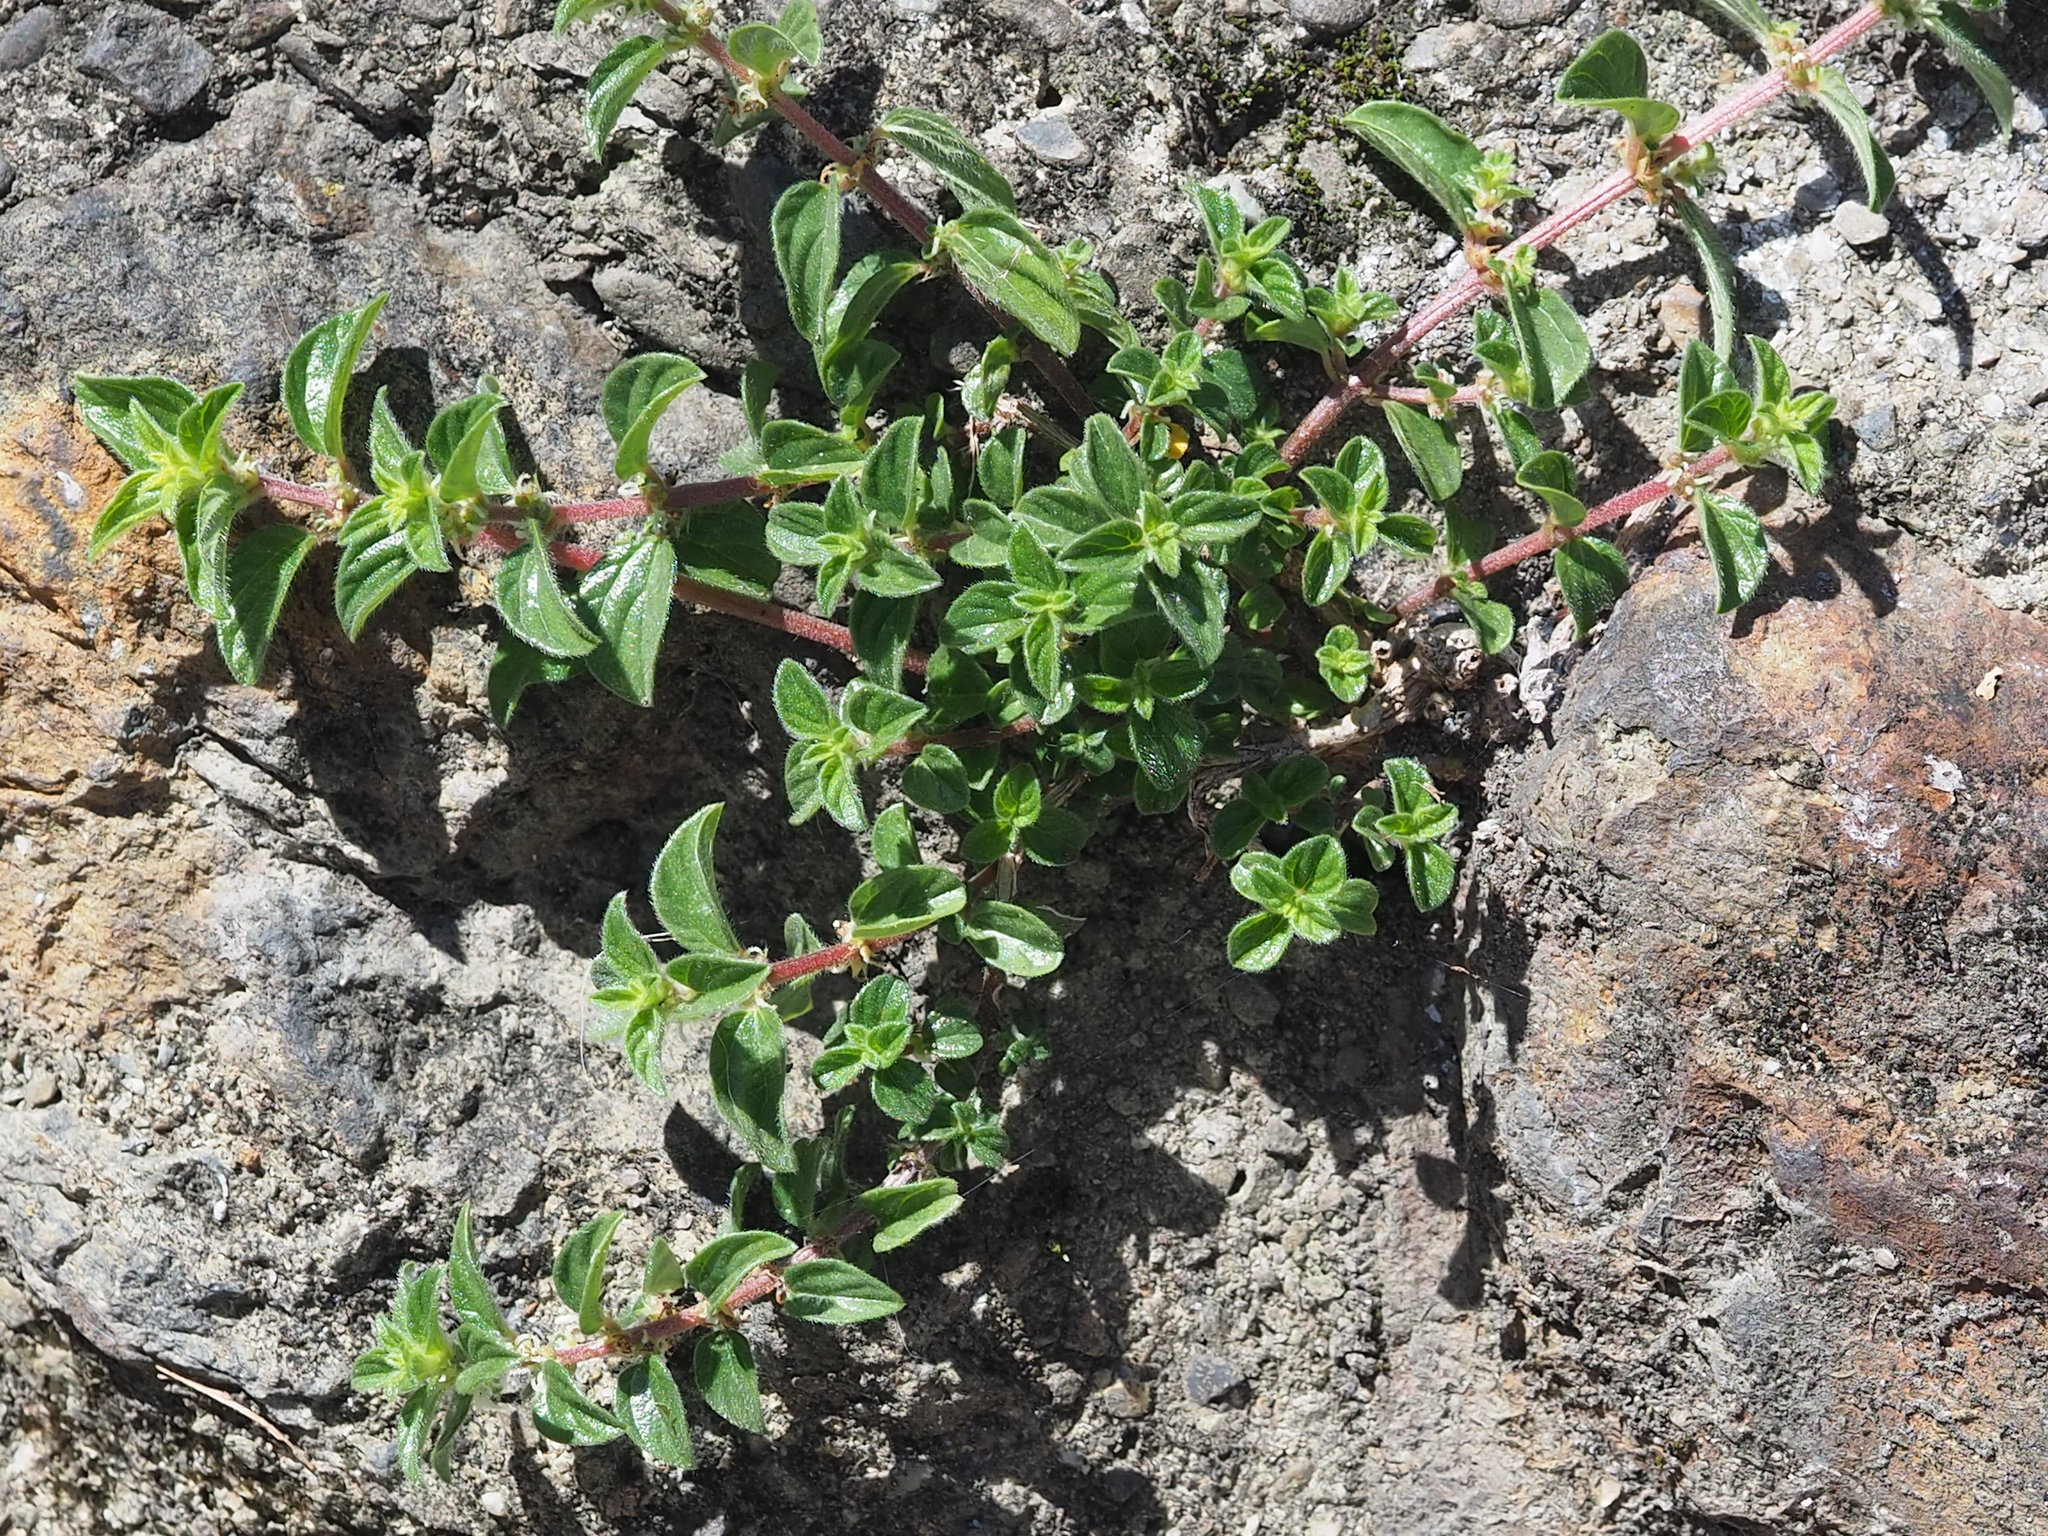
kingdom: Plantae
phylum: Tracheophyta
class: Magnoliopsida
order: Rosales
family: Urticaceae
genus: Pouzolzia
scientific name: Pouzolzia zeylanica
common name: Graceful pouzolzsbush
